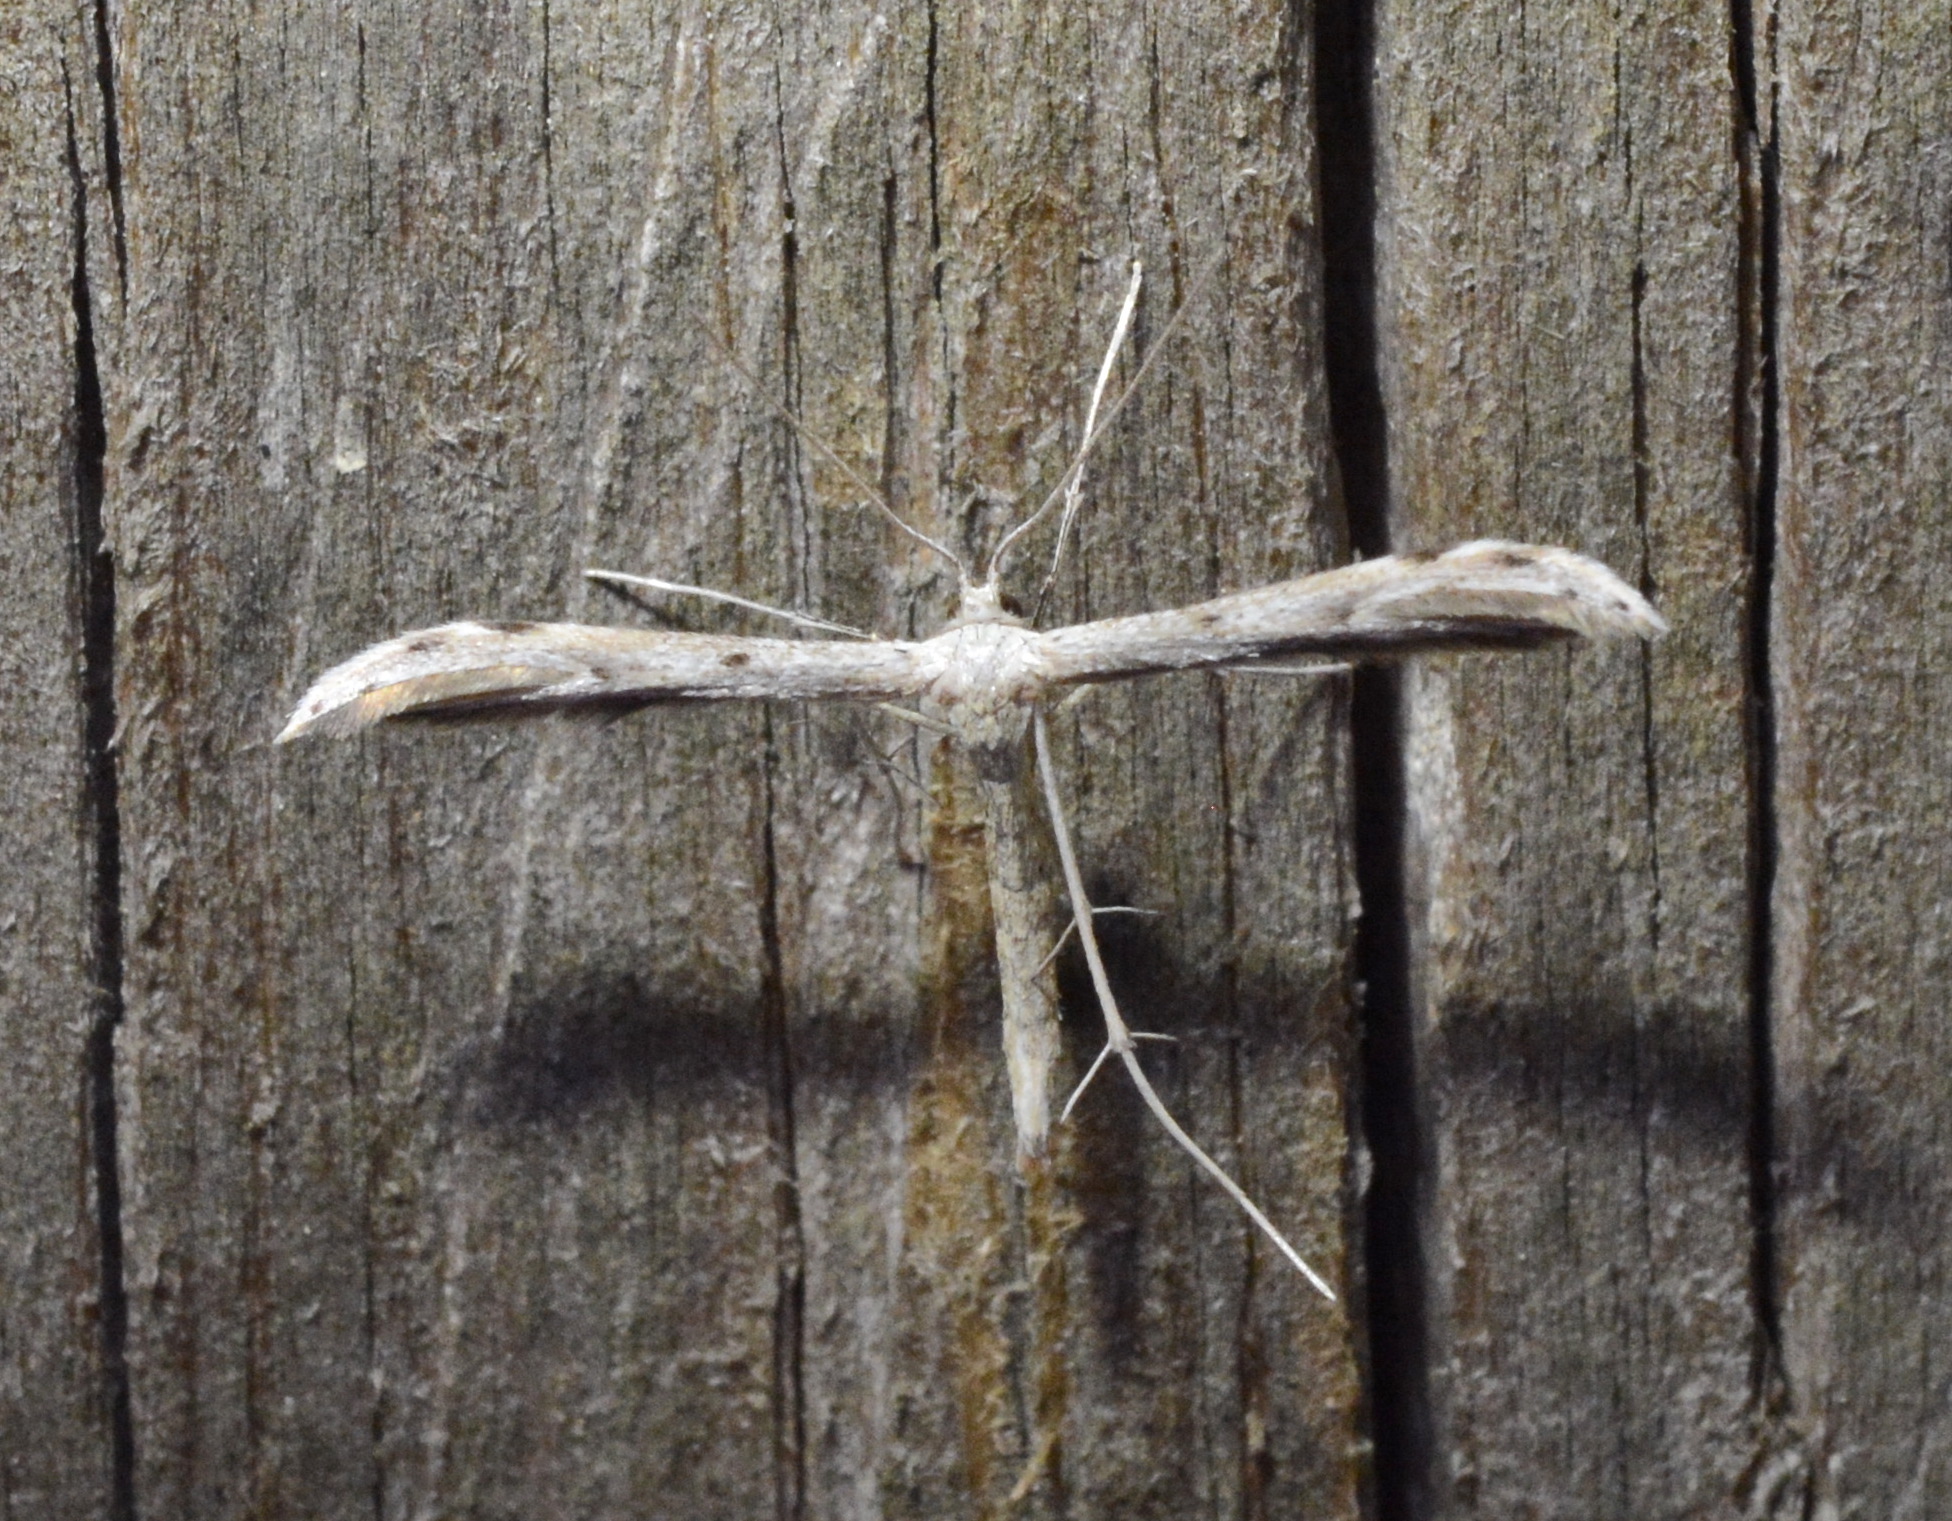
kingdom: Animalia
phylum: Arthropoda
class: Insecta
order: Lepidoptera
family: Pterophoridae
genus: Pselnophorus
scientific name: Pselnophorus belfragei
